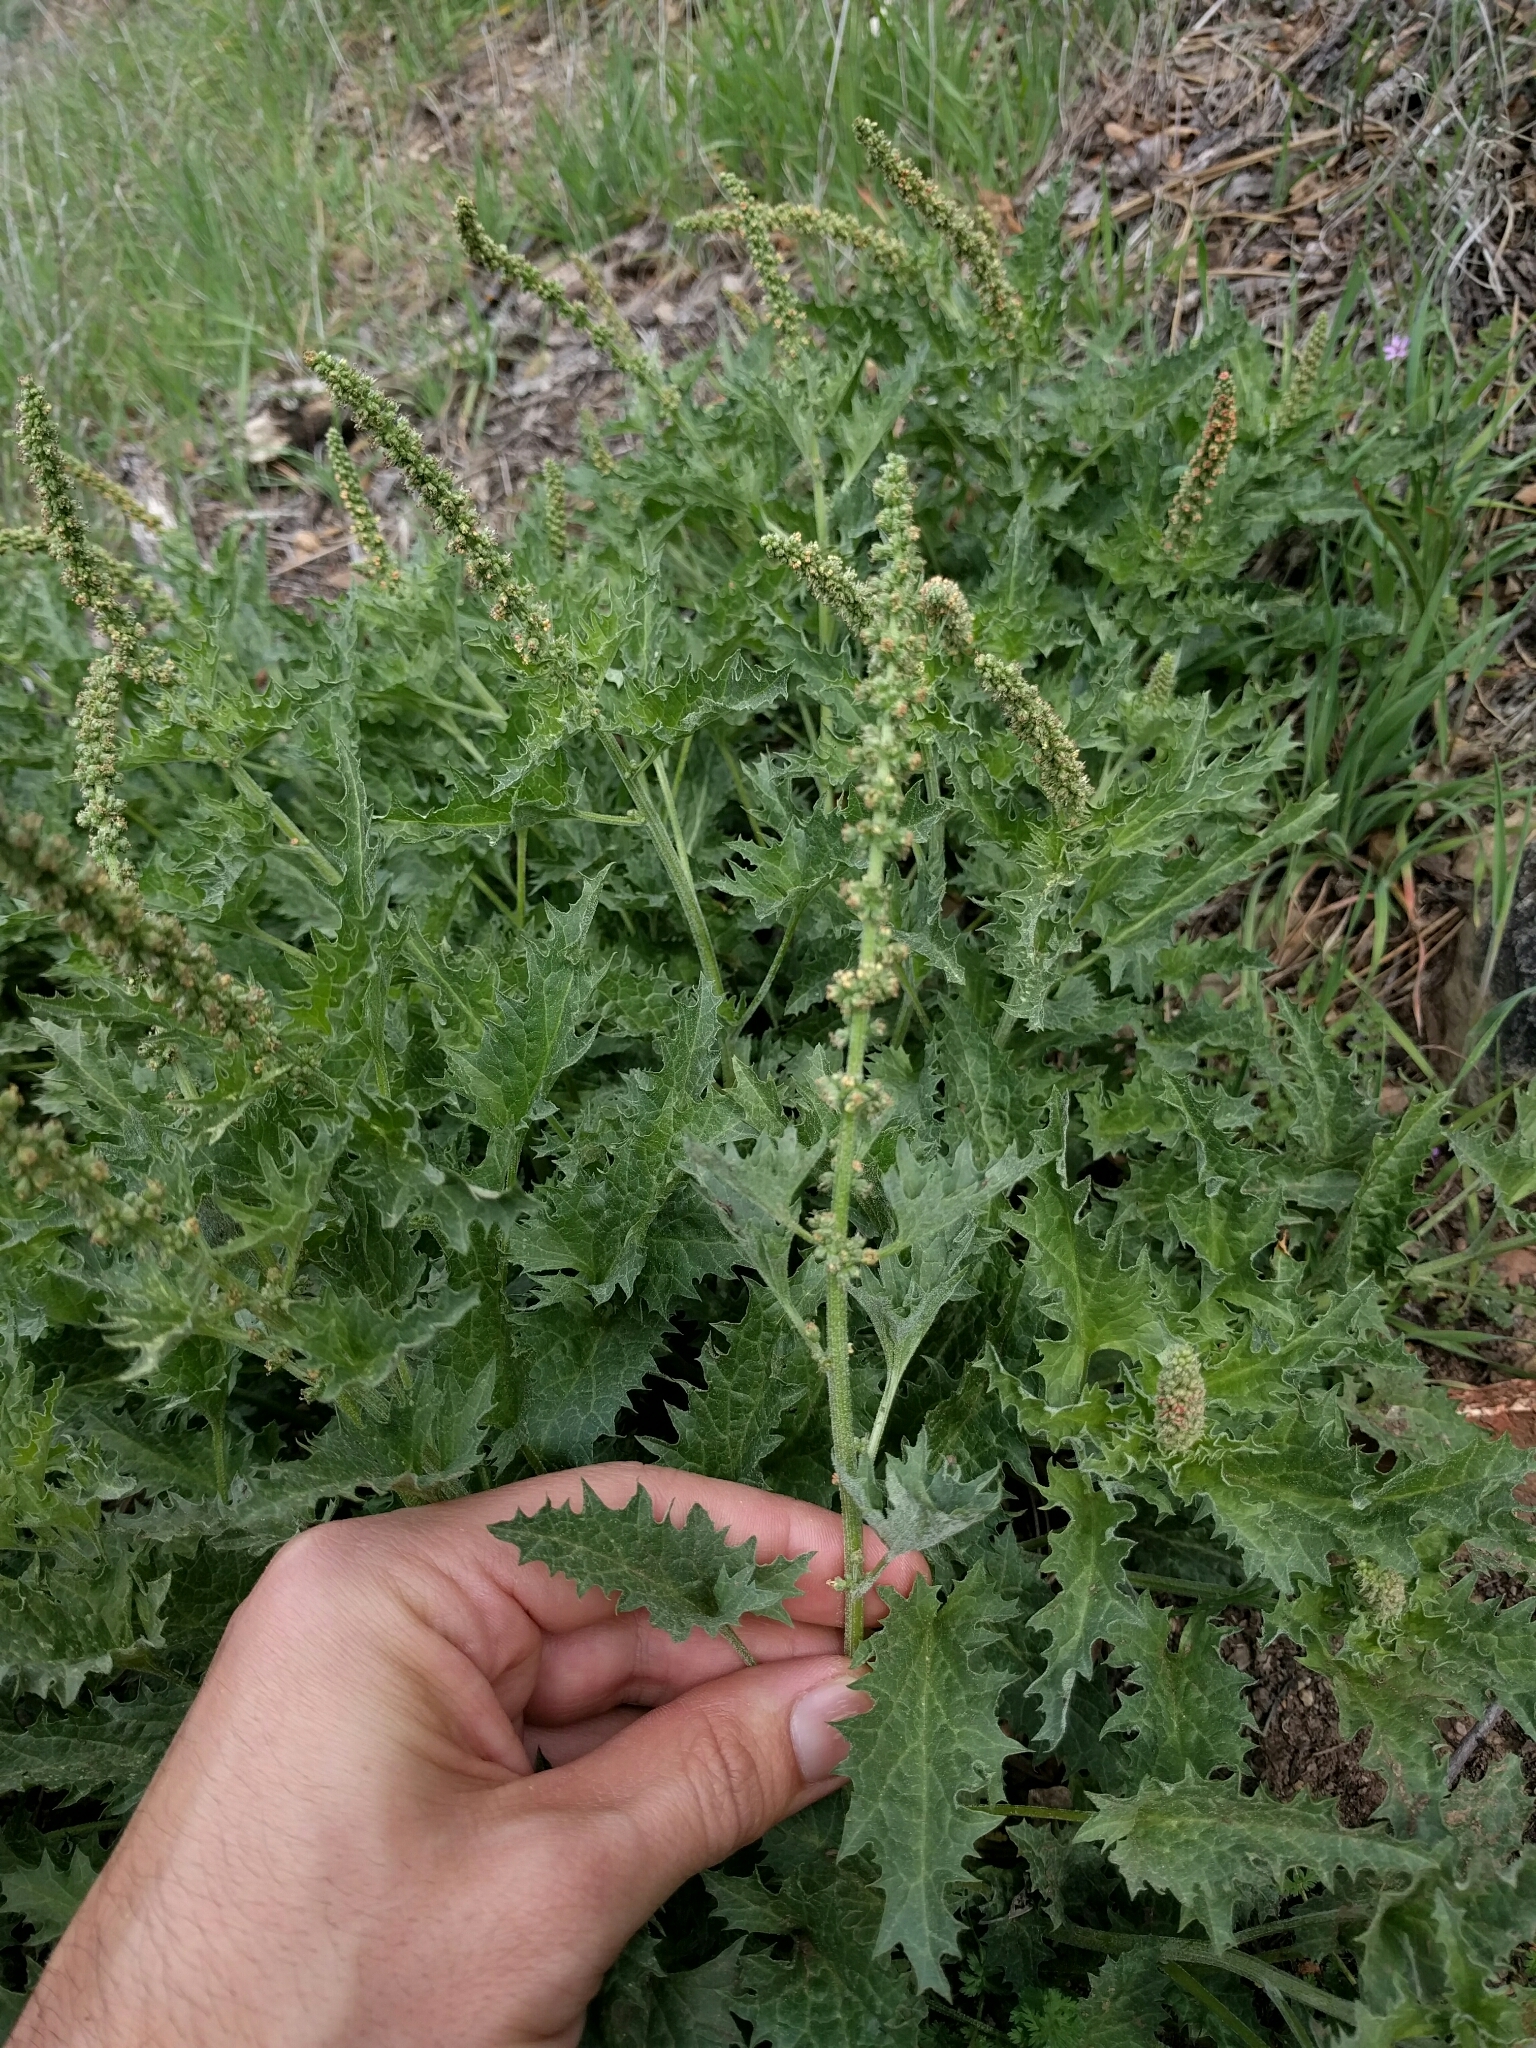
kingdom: Plantae
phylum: Tracheophyta
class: Magnoliopsida
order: Caryophyllales
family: Amaranthaceae
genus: Blitum
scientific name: Blitum californicum
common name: California goosefoot
